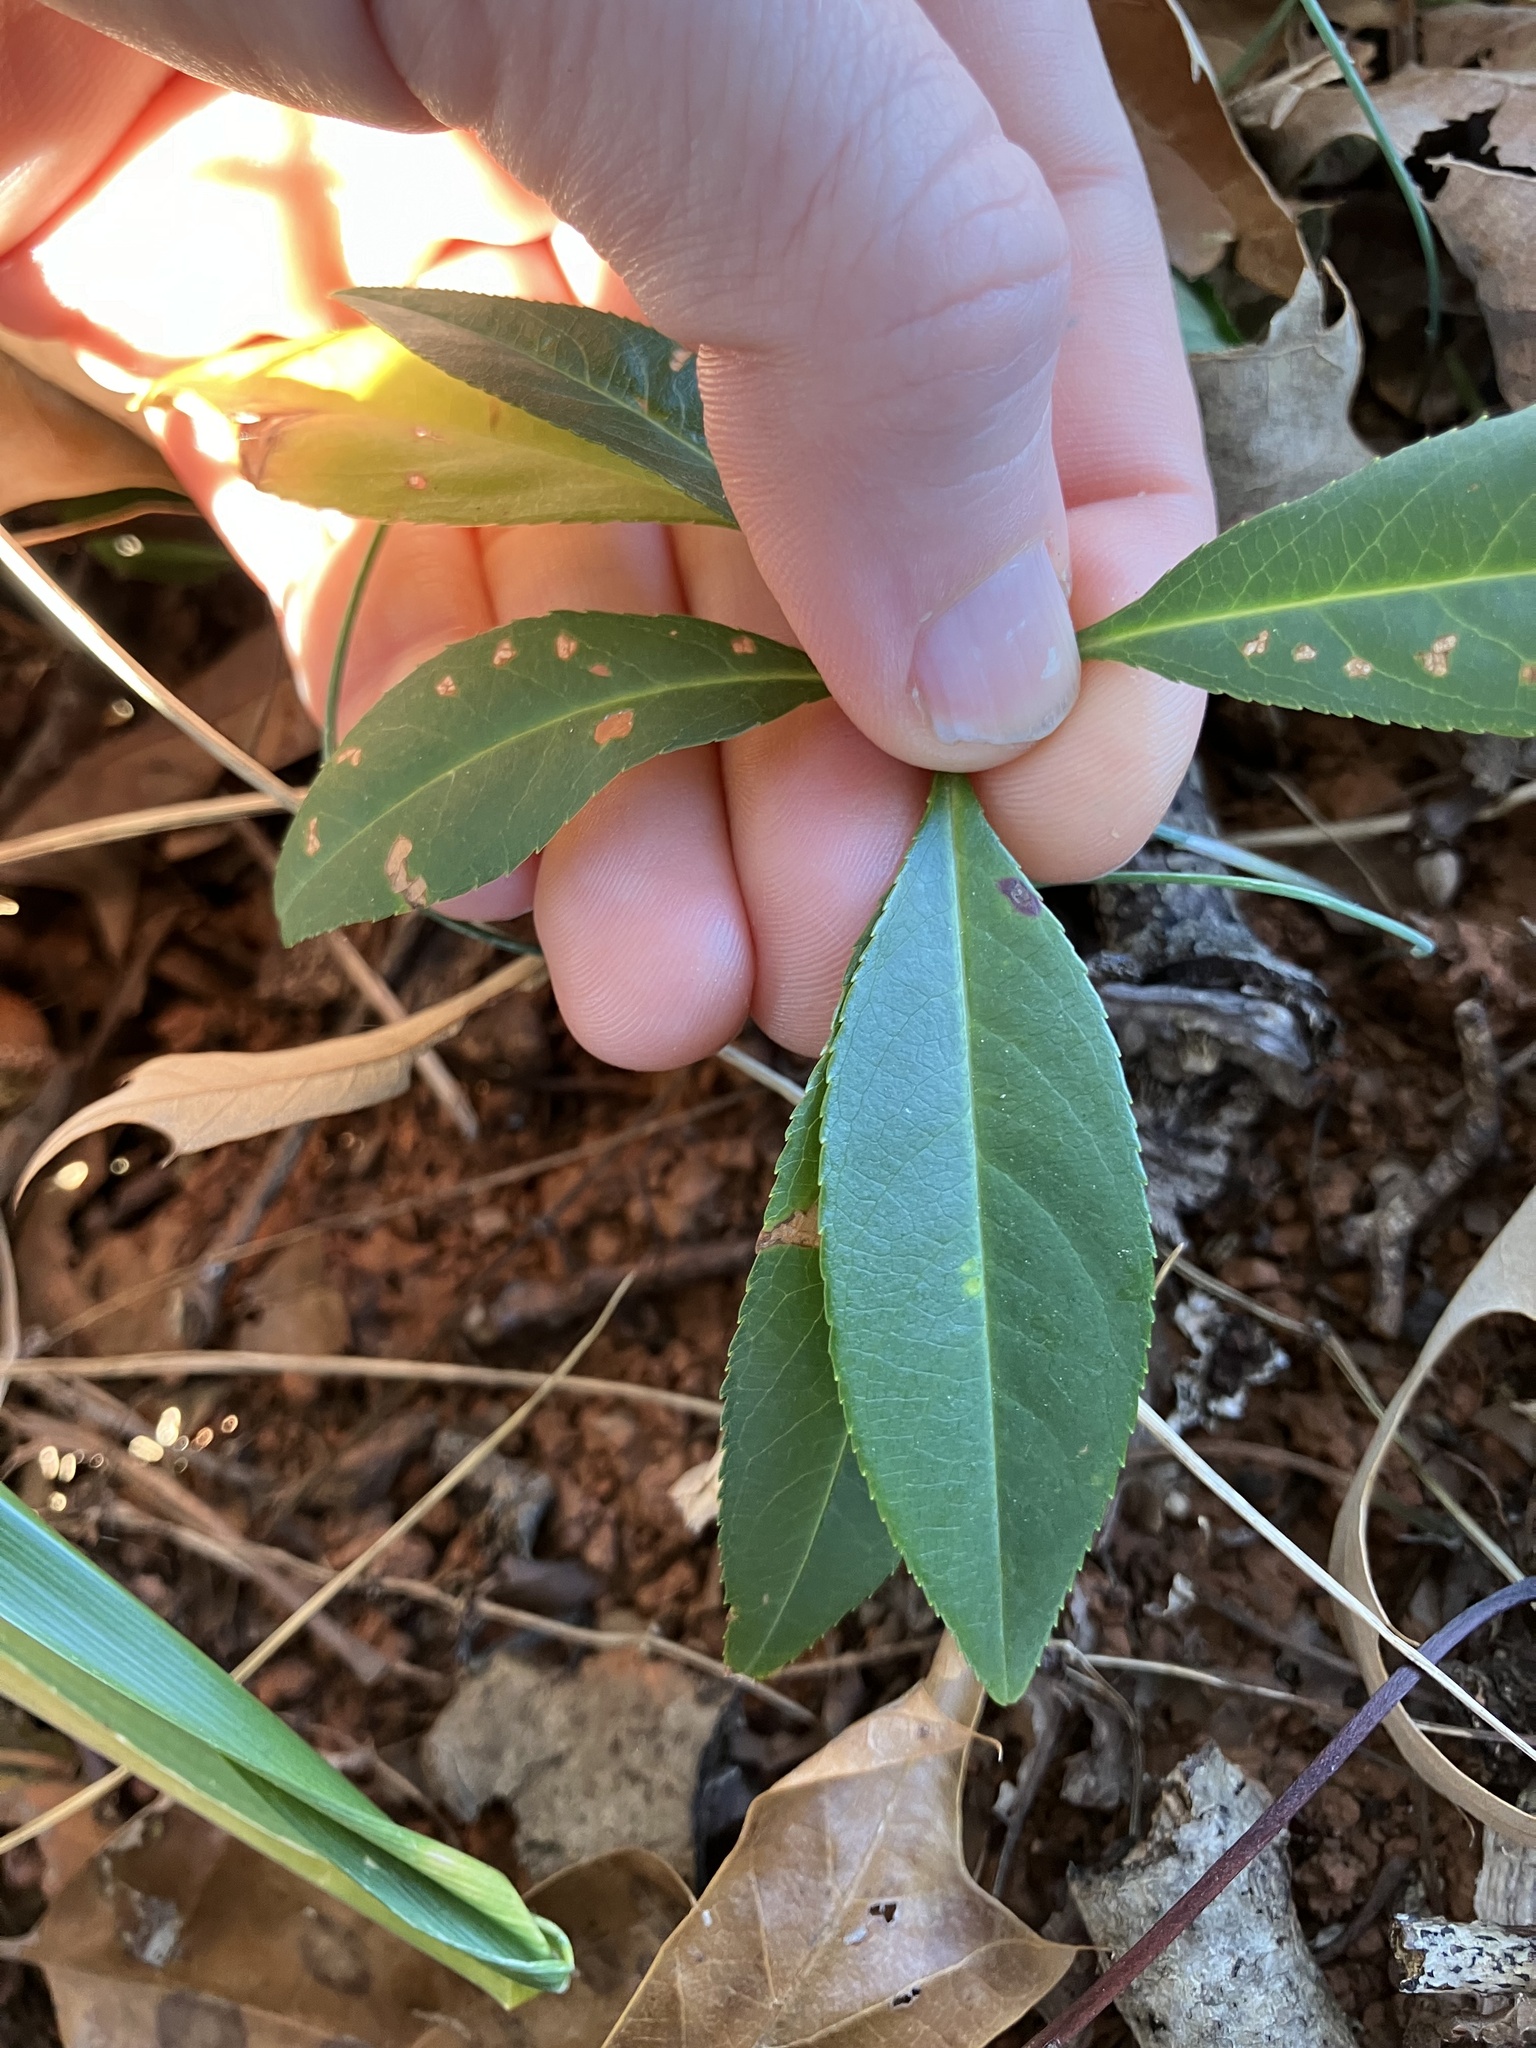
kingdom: Plantae
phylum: Tracheophyta
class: Magnoliopsida
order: Rosales
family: Rosaceae
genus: Prunus
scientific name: Prunus serotina
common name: Black cherry
